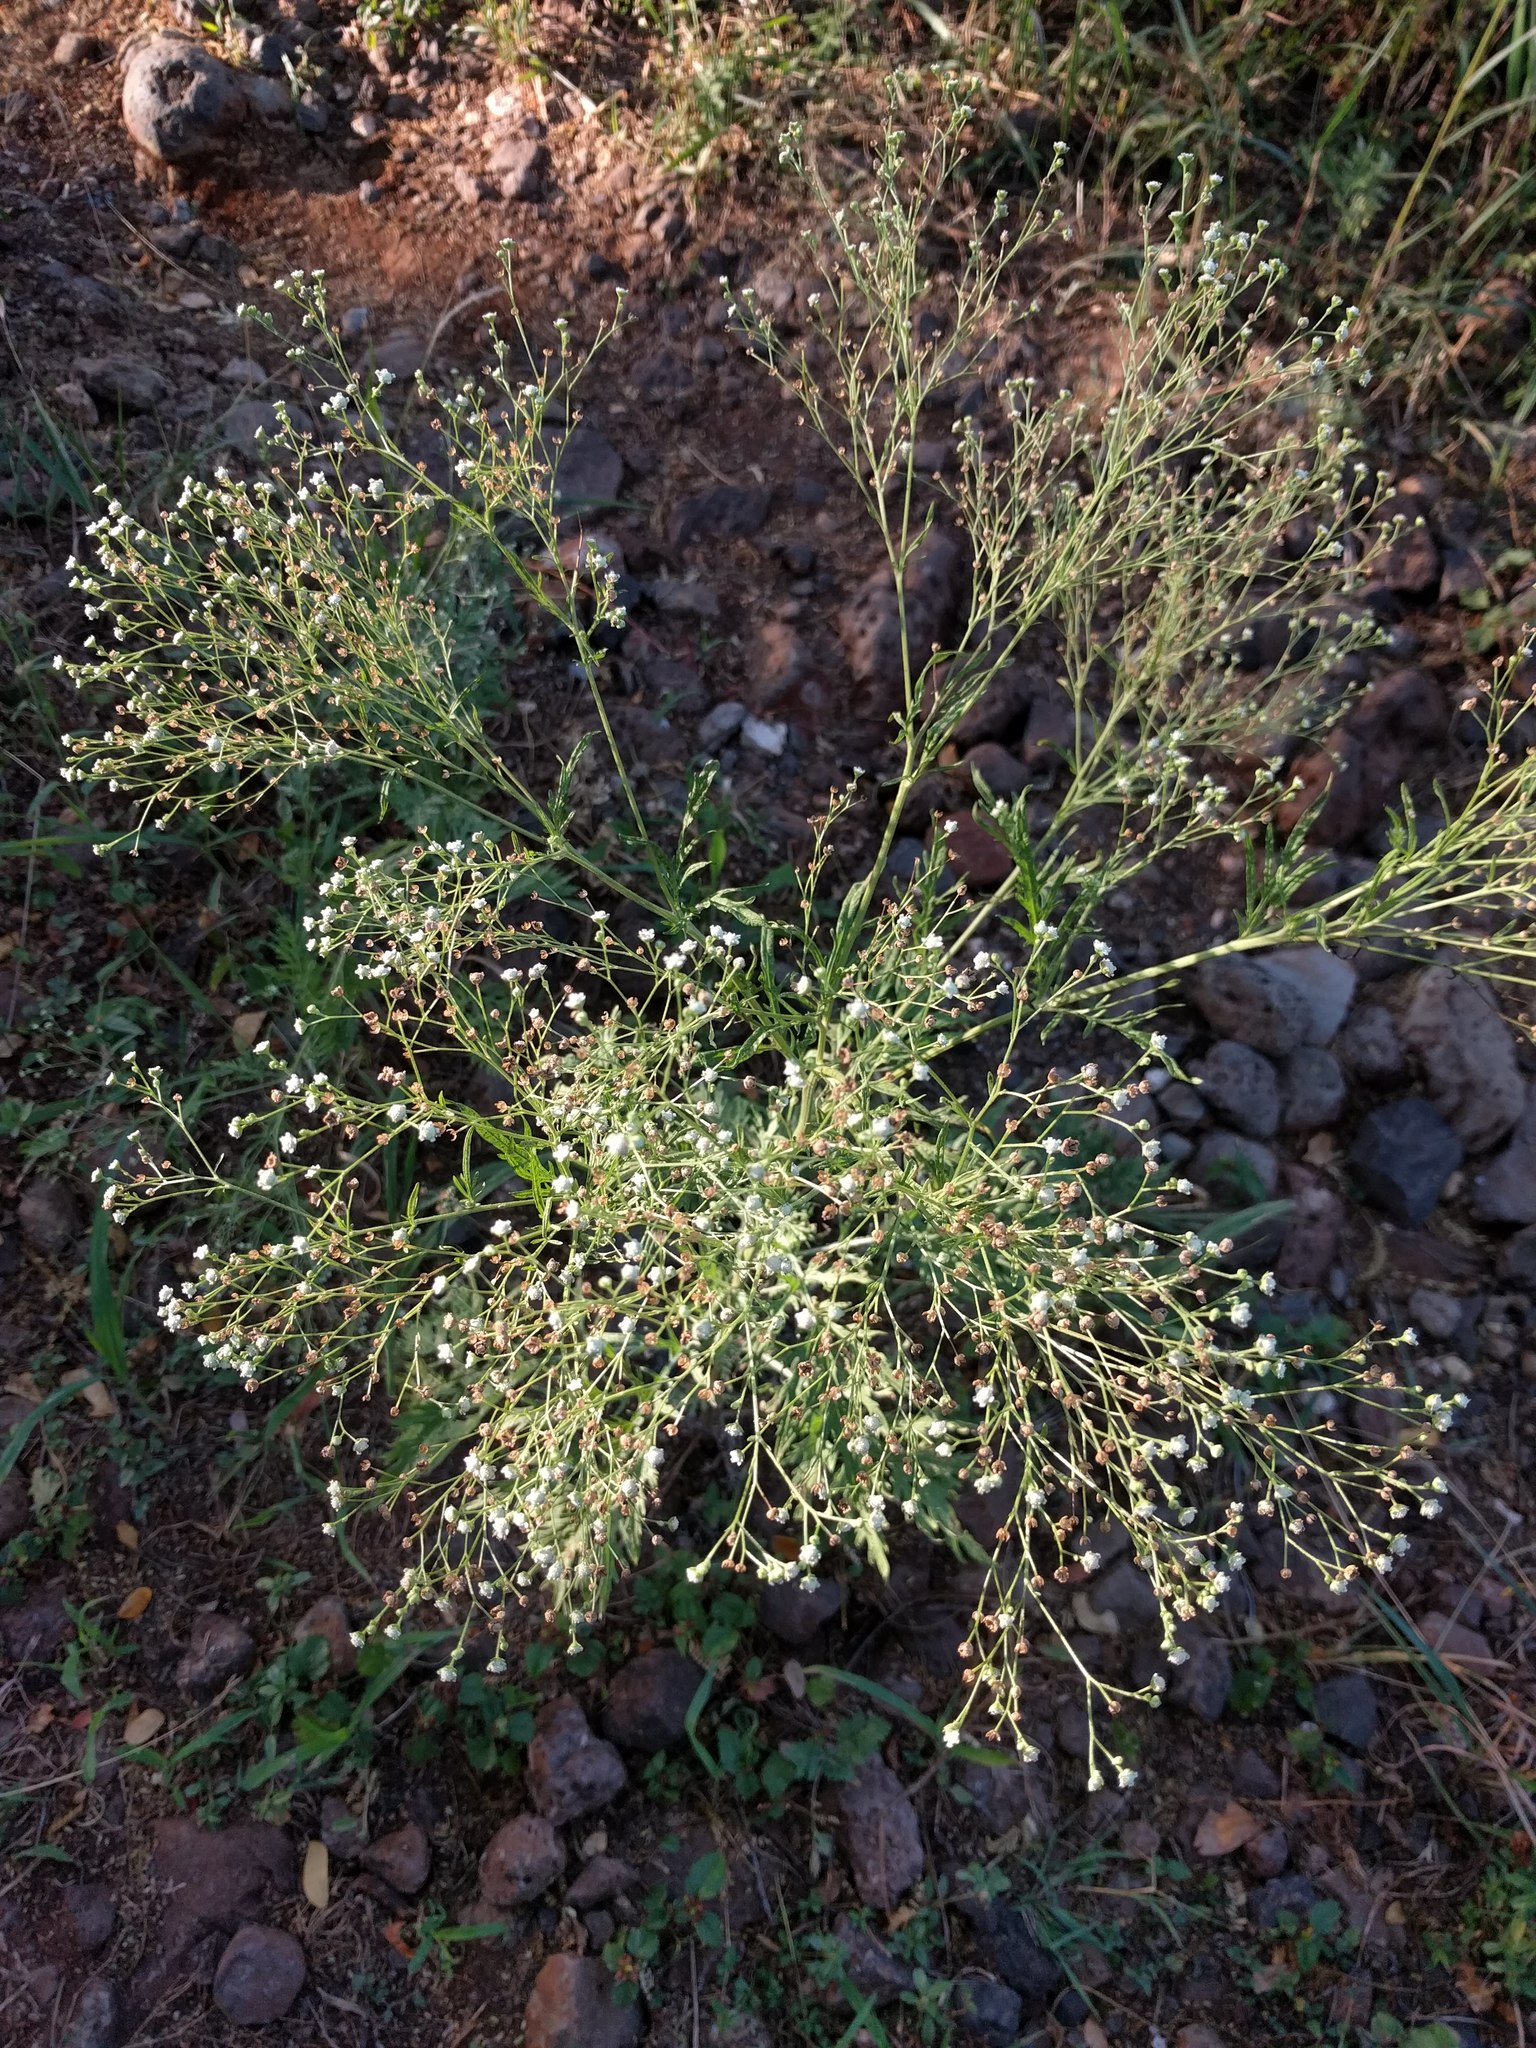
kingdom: Plantae
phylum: Tracheophyta
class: Magnoliopsida
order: Asterales
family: Asteraceae
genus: Parthenium
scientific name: Parthenium hysterophorus
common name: Santa maria feverfew
